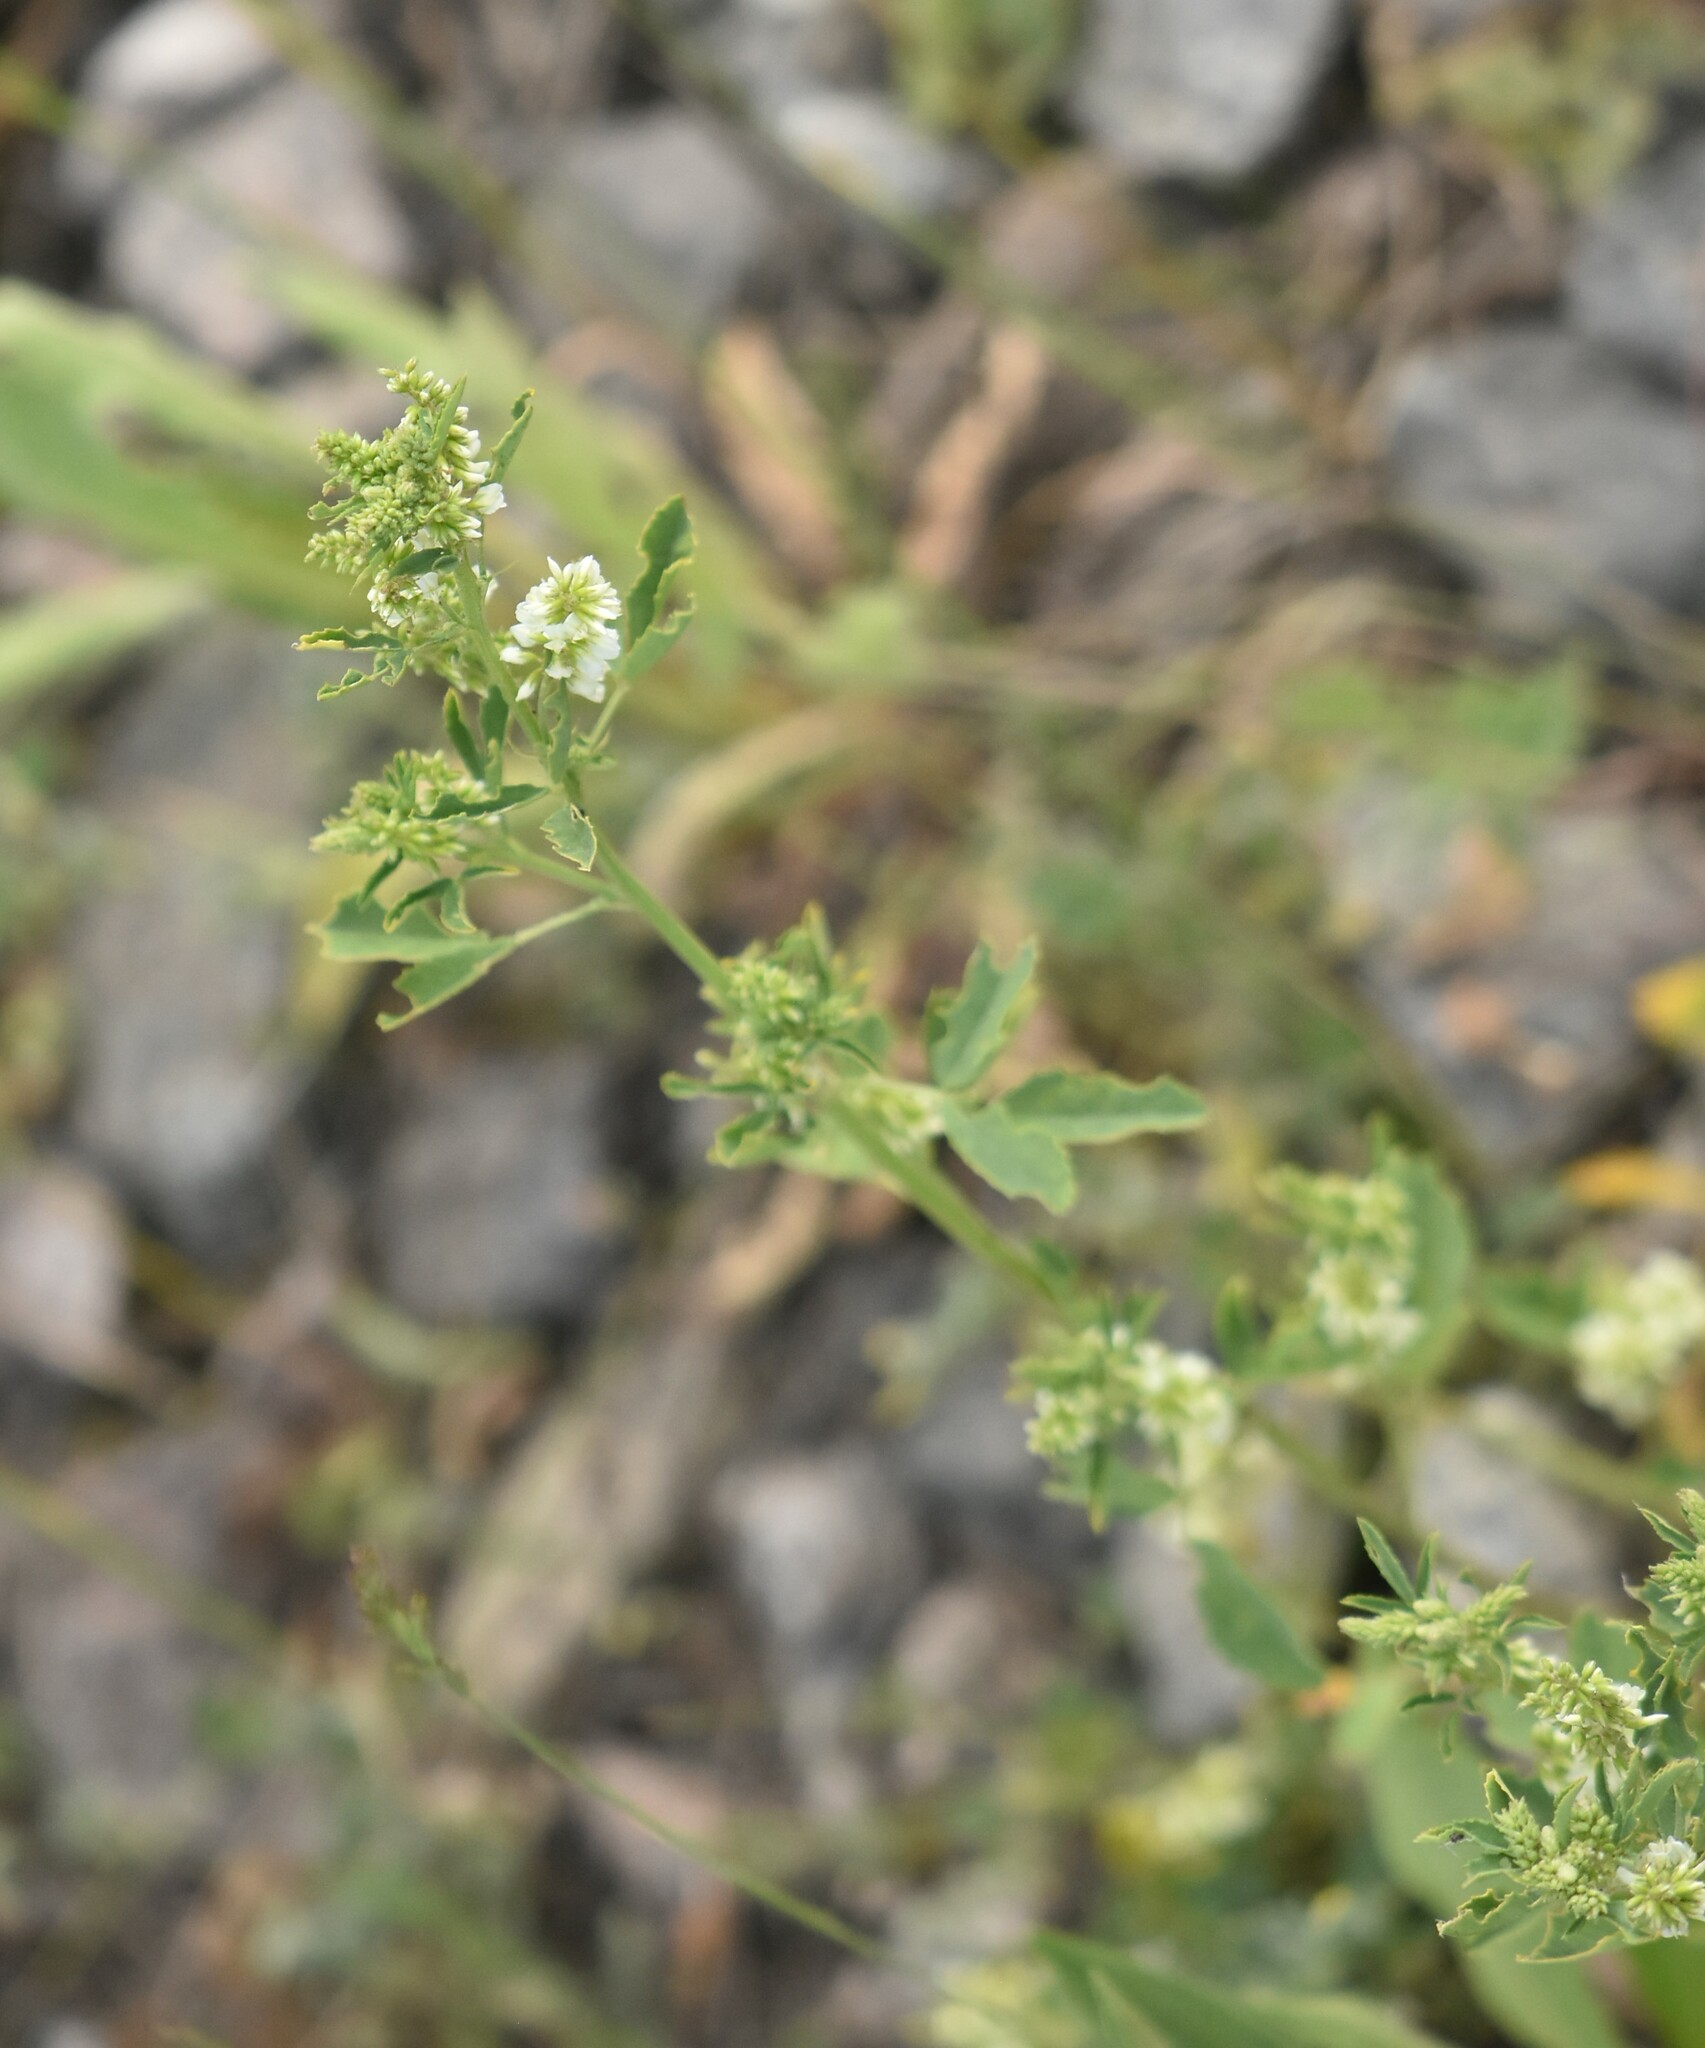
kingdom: Plantae
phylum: Tracheophyta
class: Magnoliopsida
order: Fabales
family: Fabaceae
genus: Melilotus
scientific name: Melilotus albus
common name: White melilot
